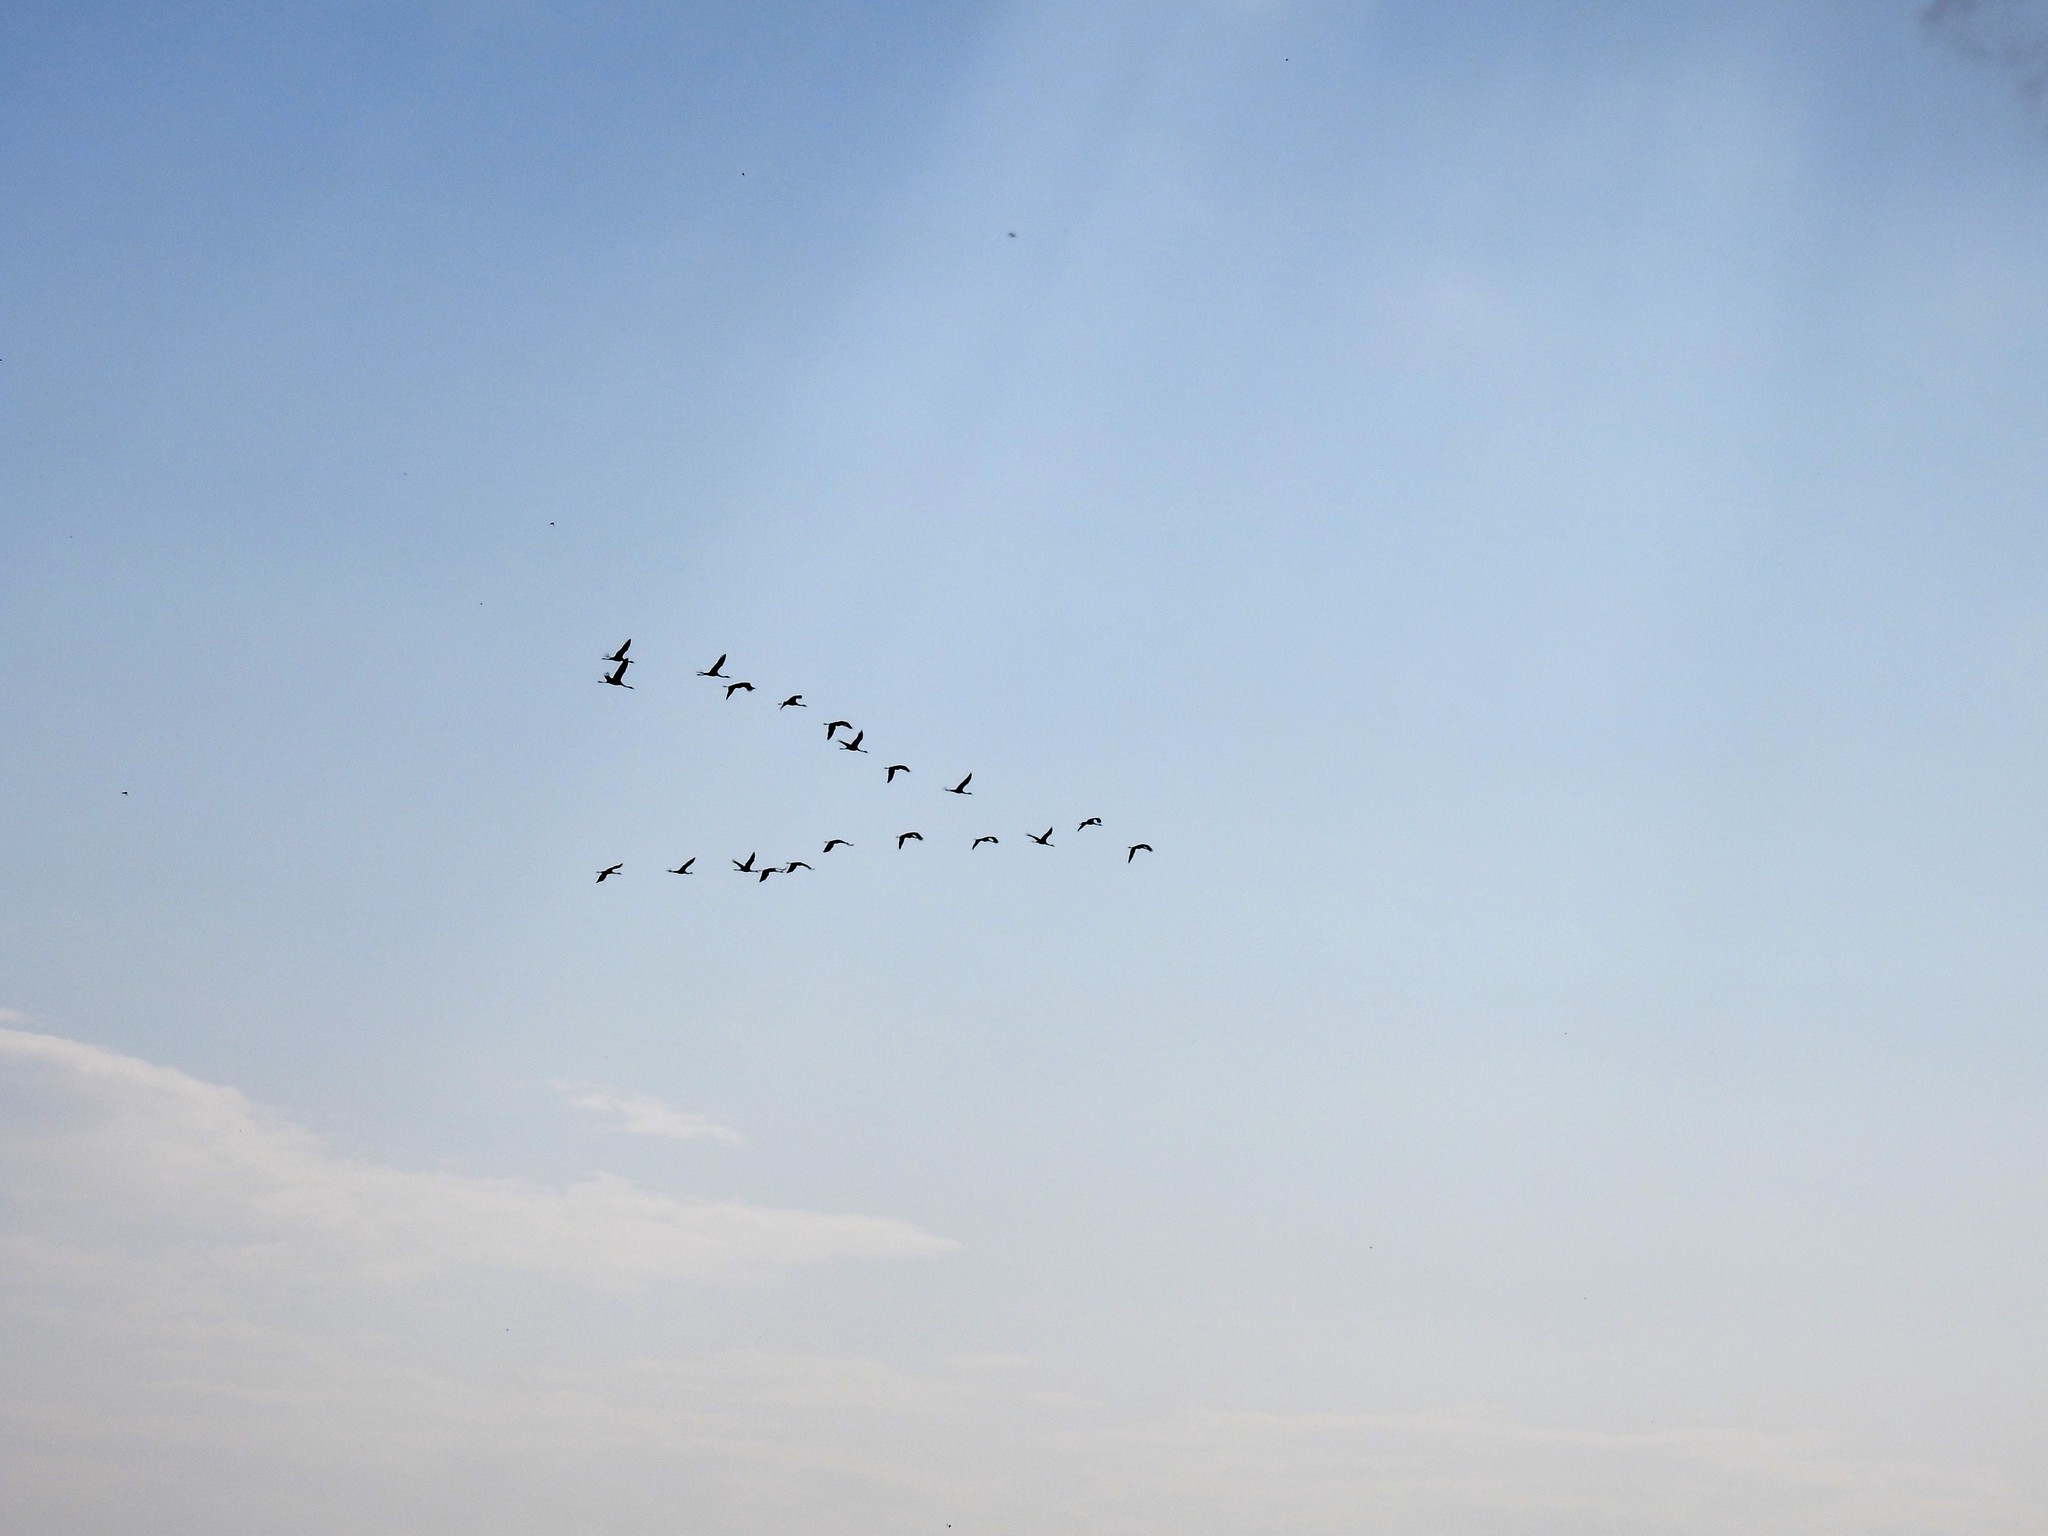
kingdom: Animalia
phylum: Chordata
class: Aves
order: Gruiformes
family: Gruidae
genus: Grus
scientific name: Grus grus
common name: Common crane
